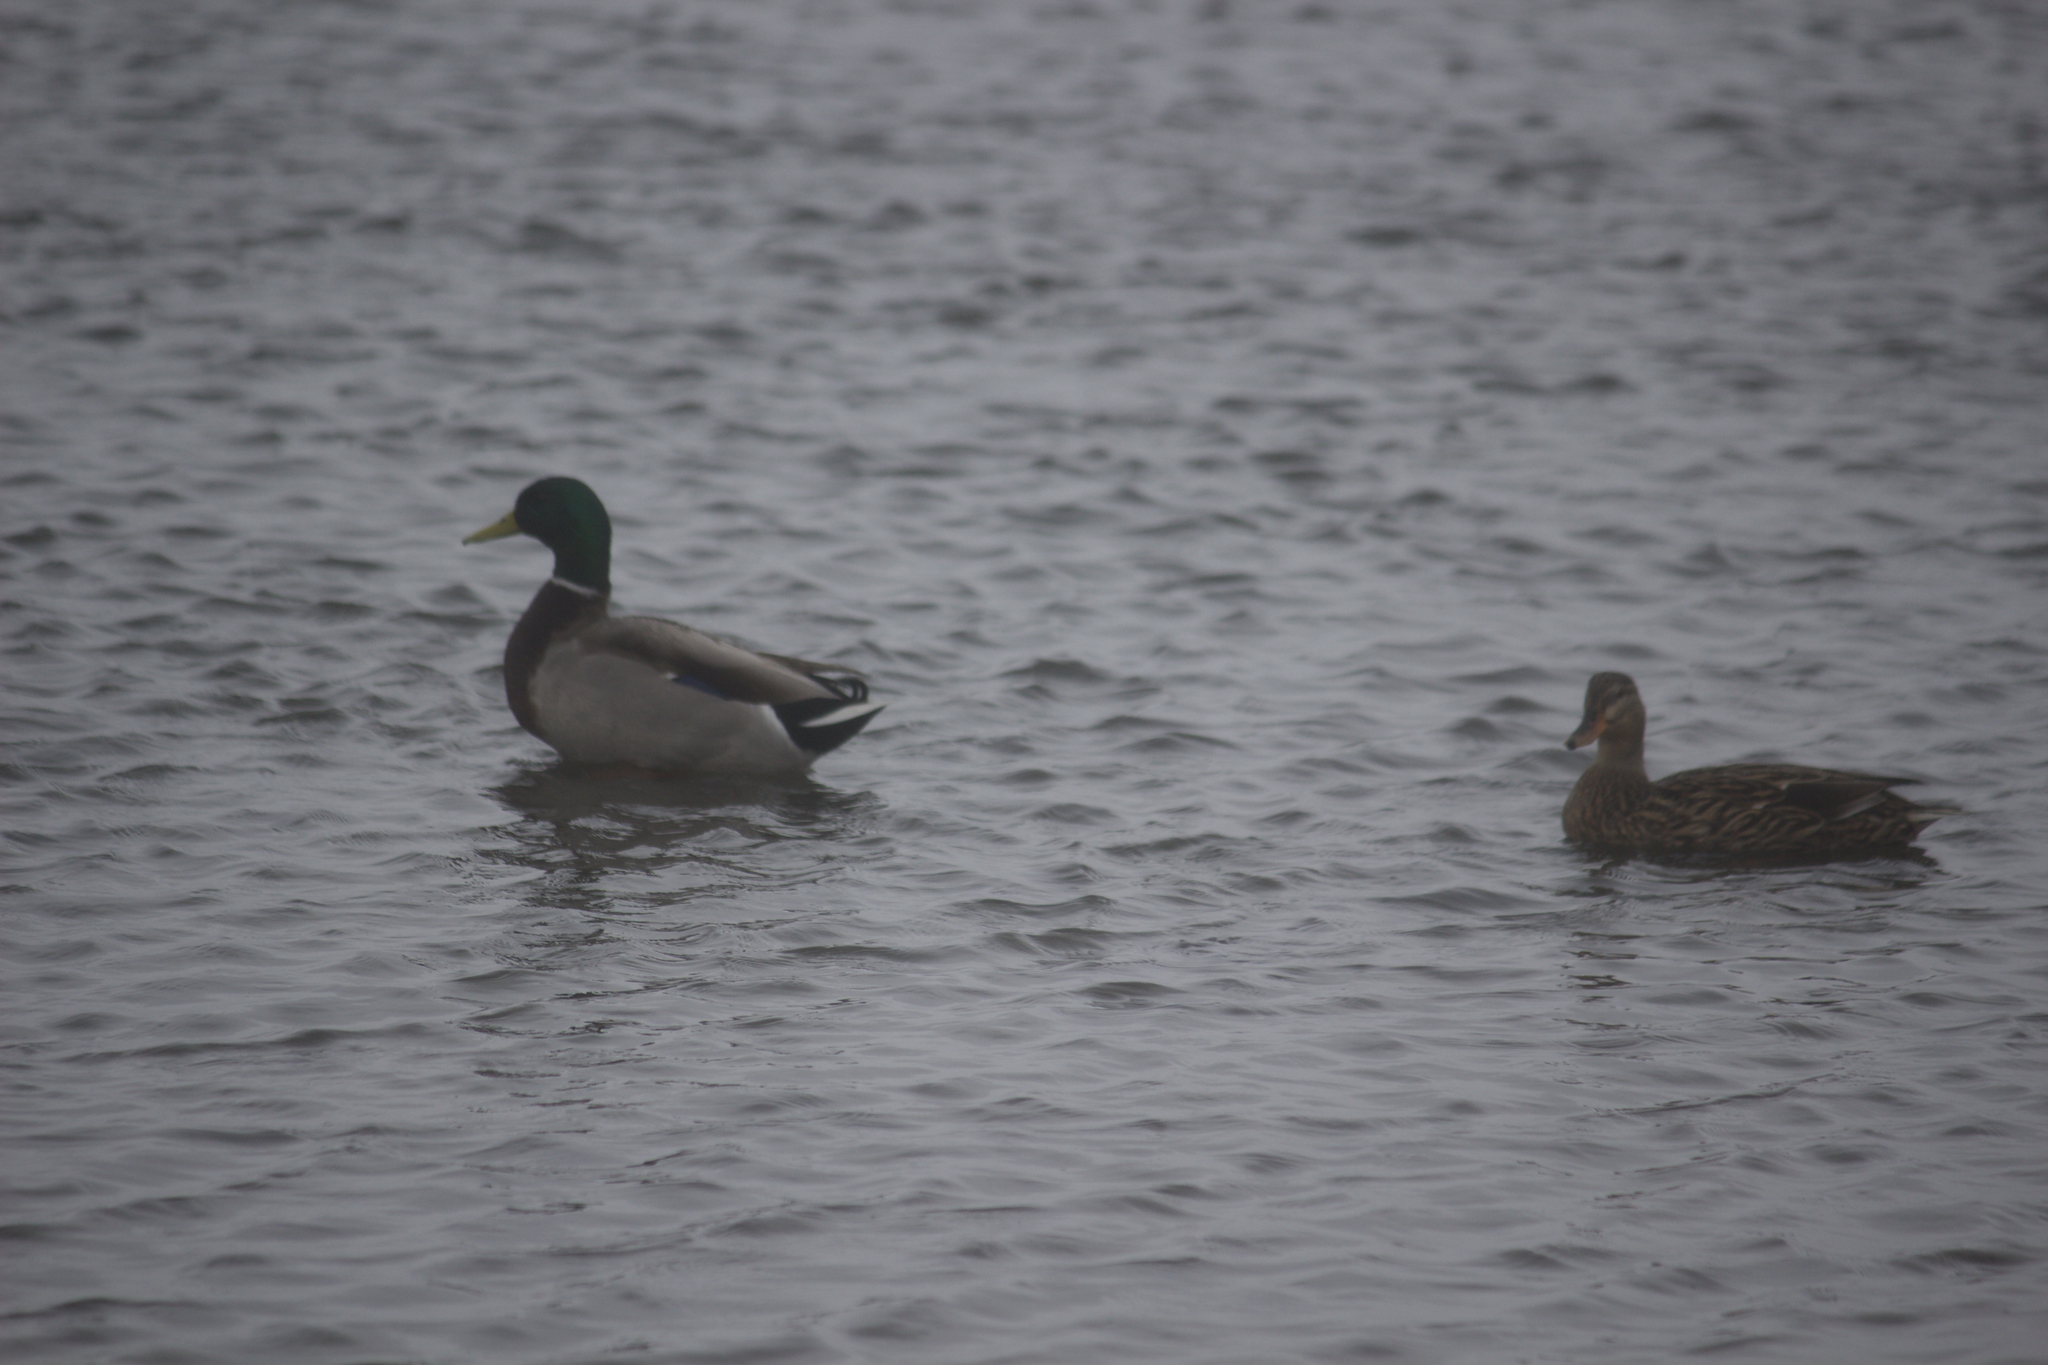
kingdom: Animalia
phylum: Chordata
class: Aves
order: Anseriformes
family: Anatidae
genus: Anas
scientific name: Anas platyrhynchos
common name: Mallard
